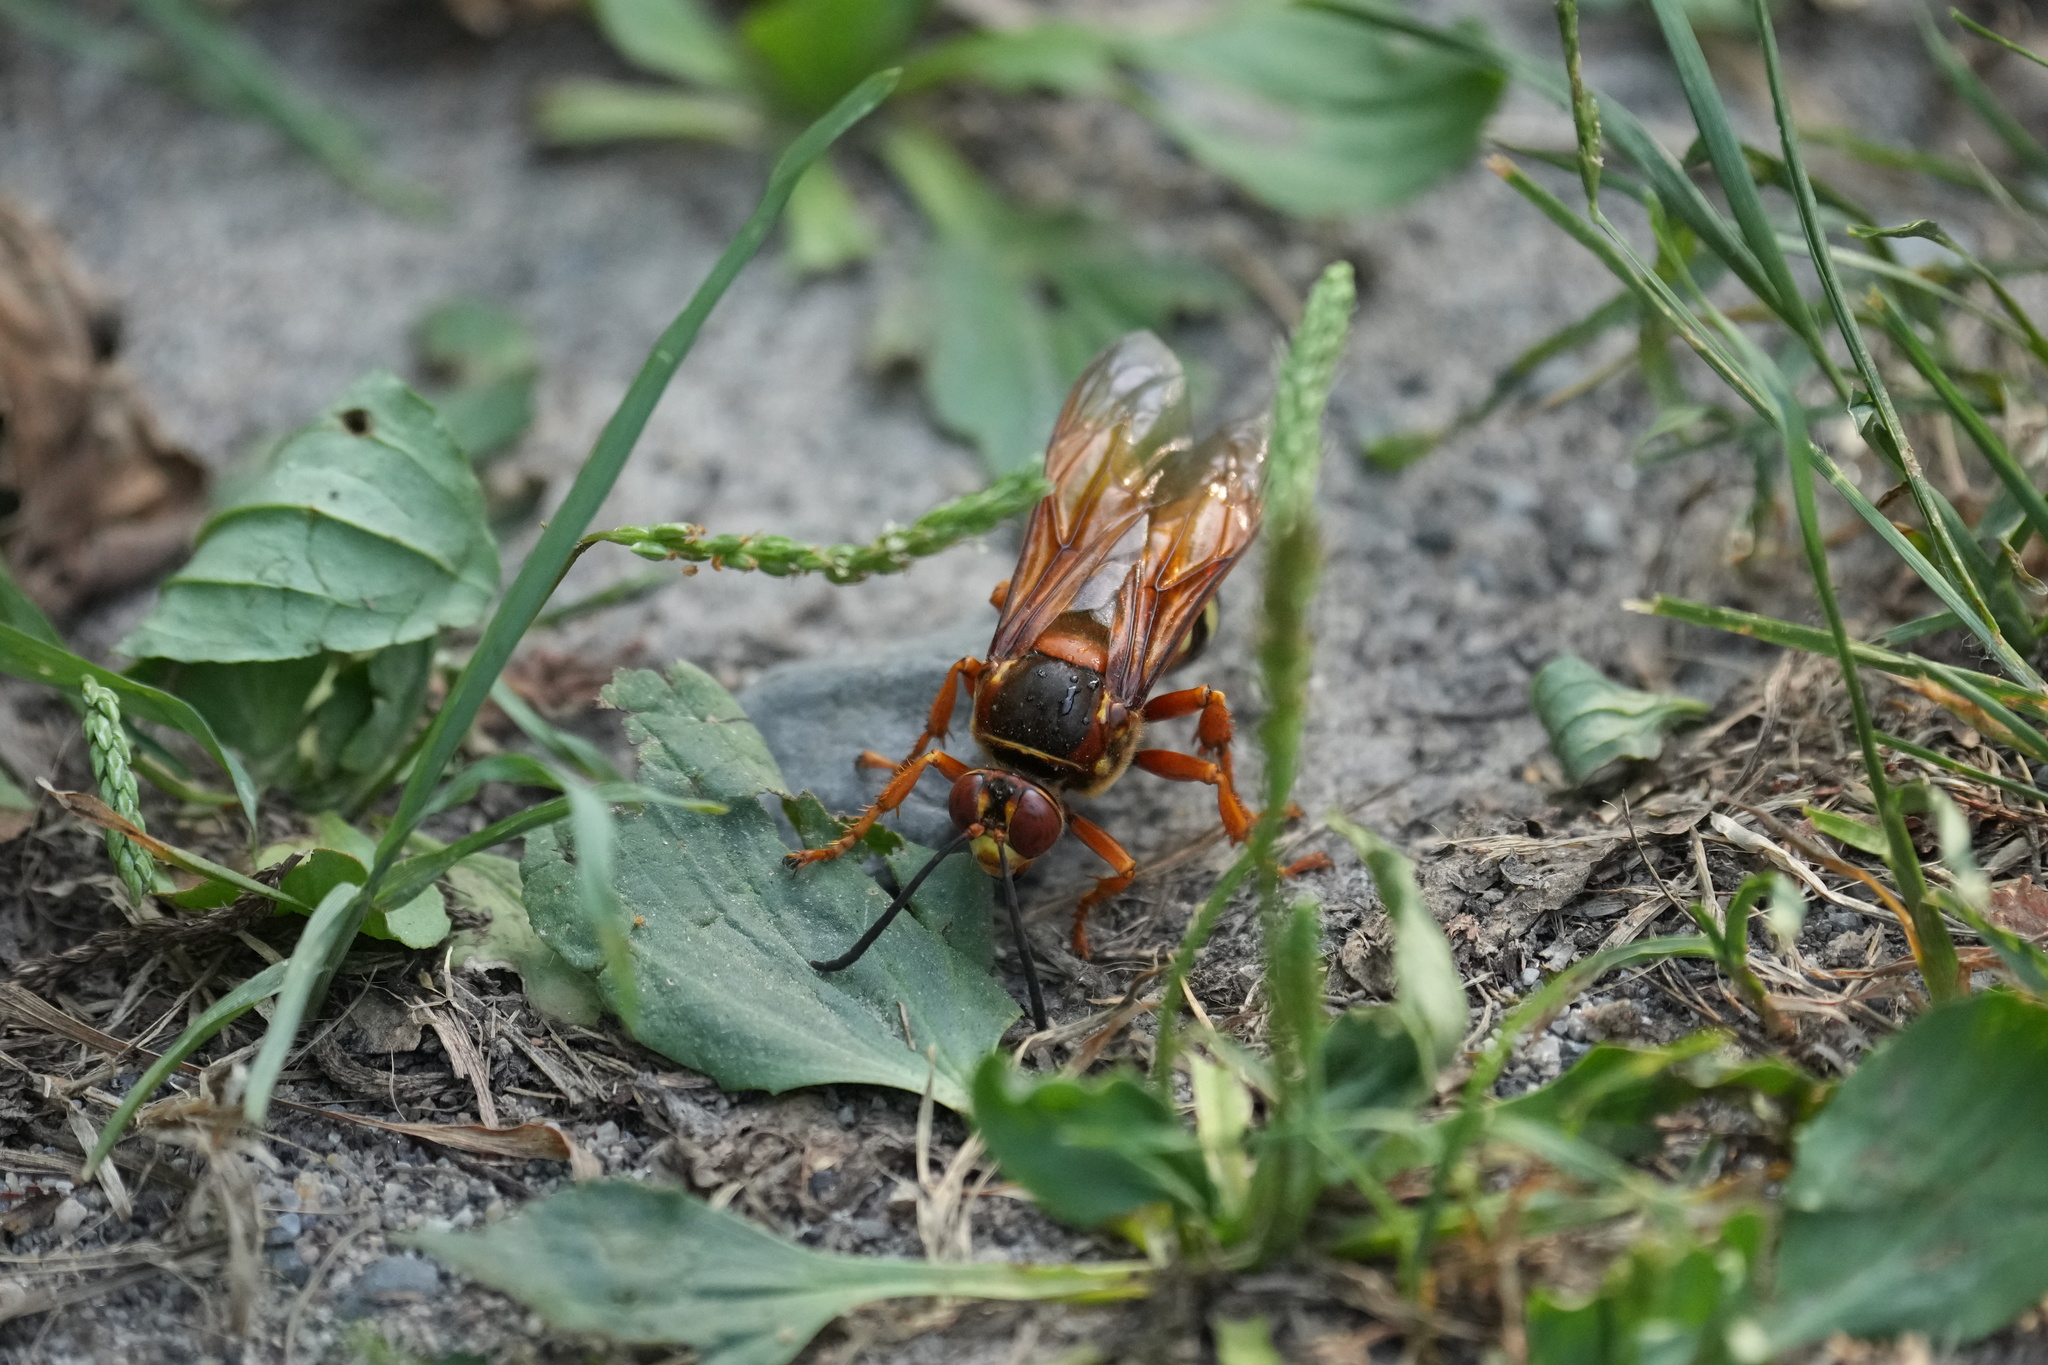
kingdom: Animalia
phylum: Arthropoda
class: Insecta
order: Hymenoptera
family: Crabronidae
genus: Sphecius
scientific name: Sphecius speciosus
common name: Cicada killer
